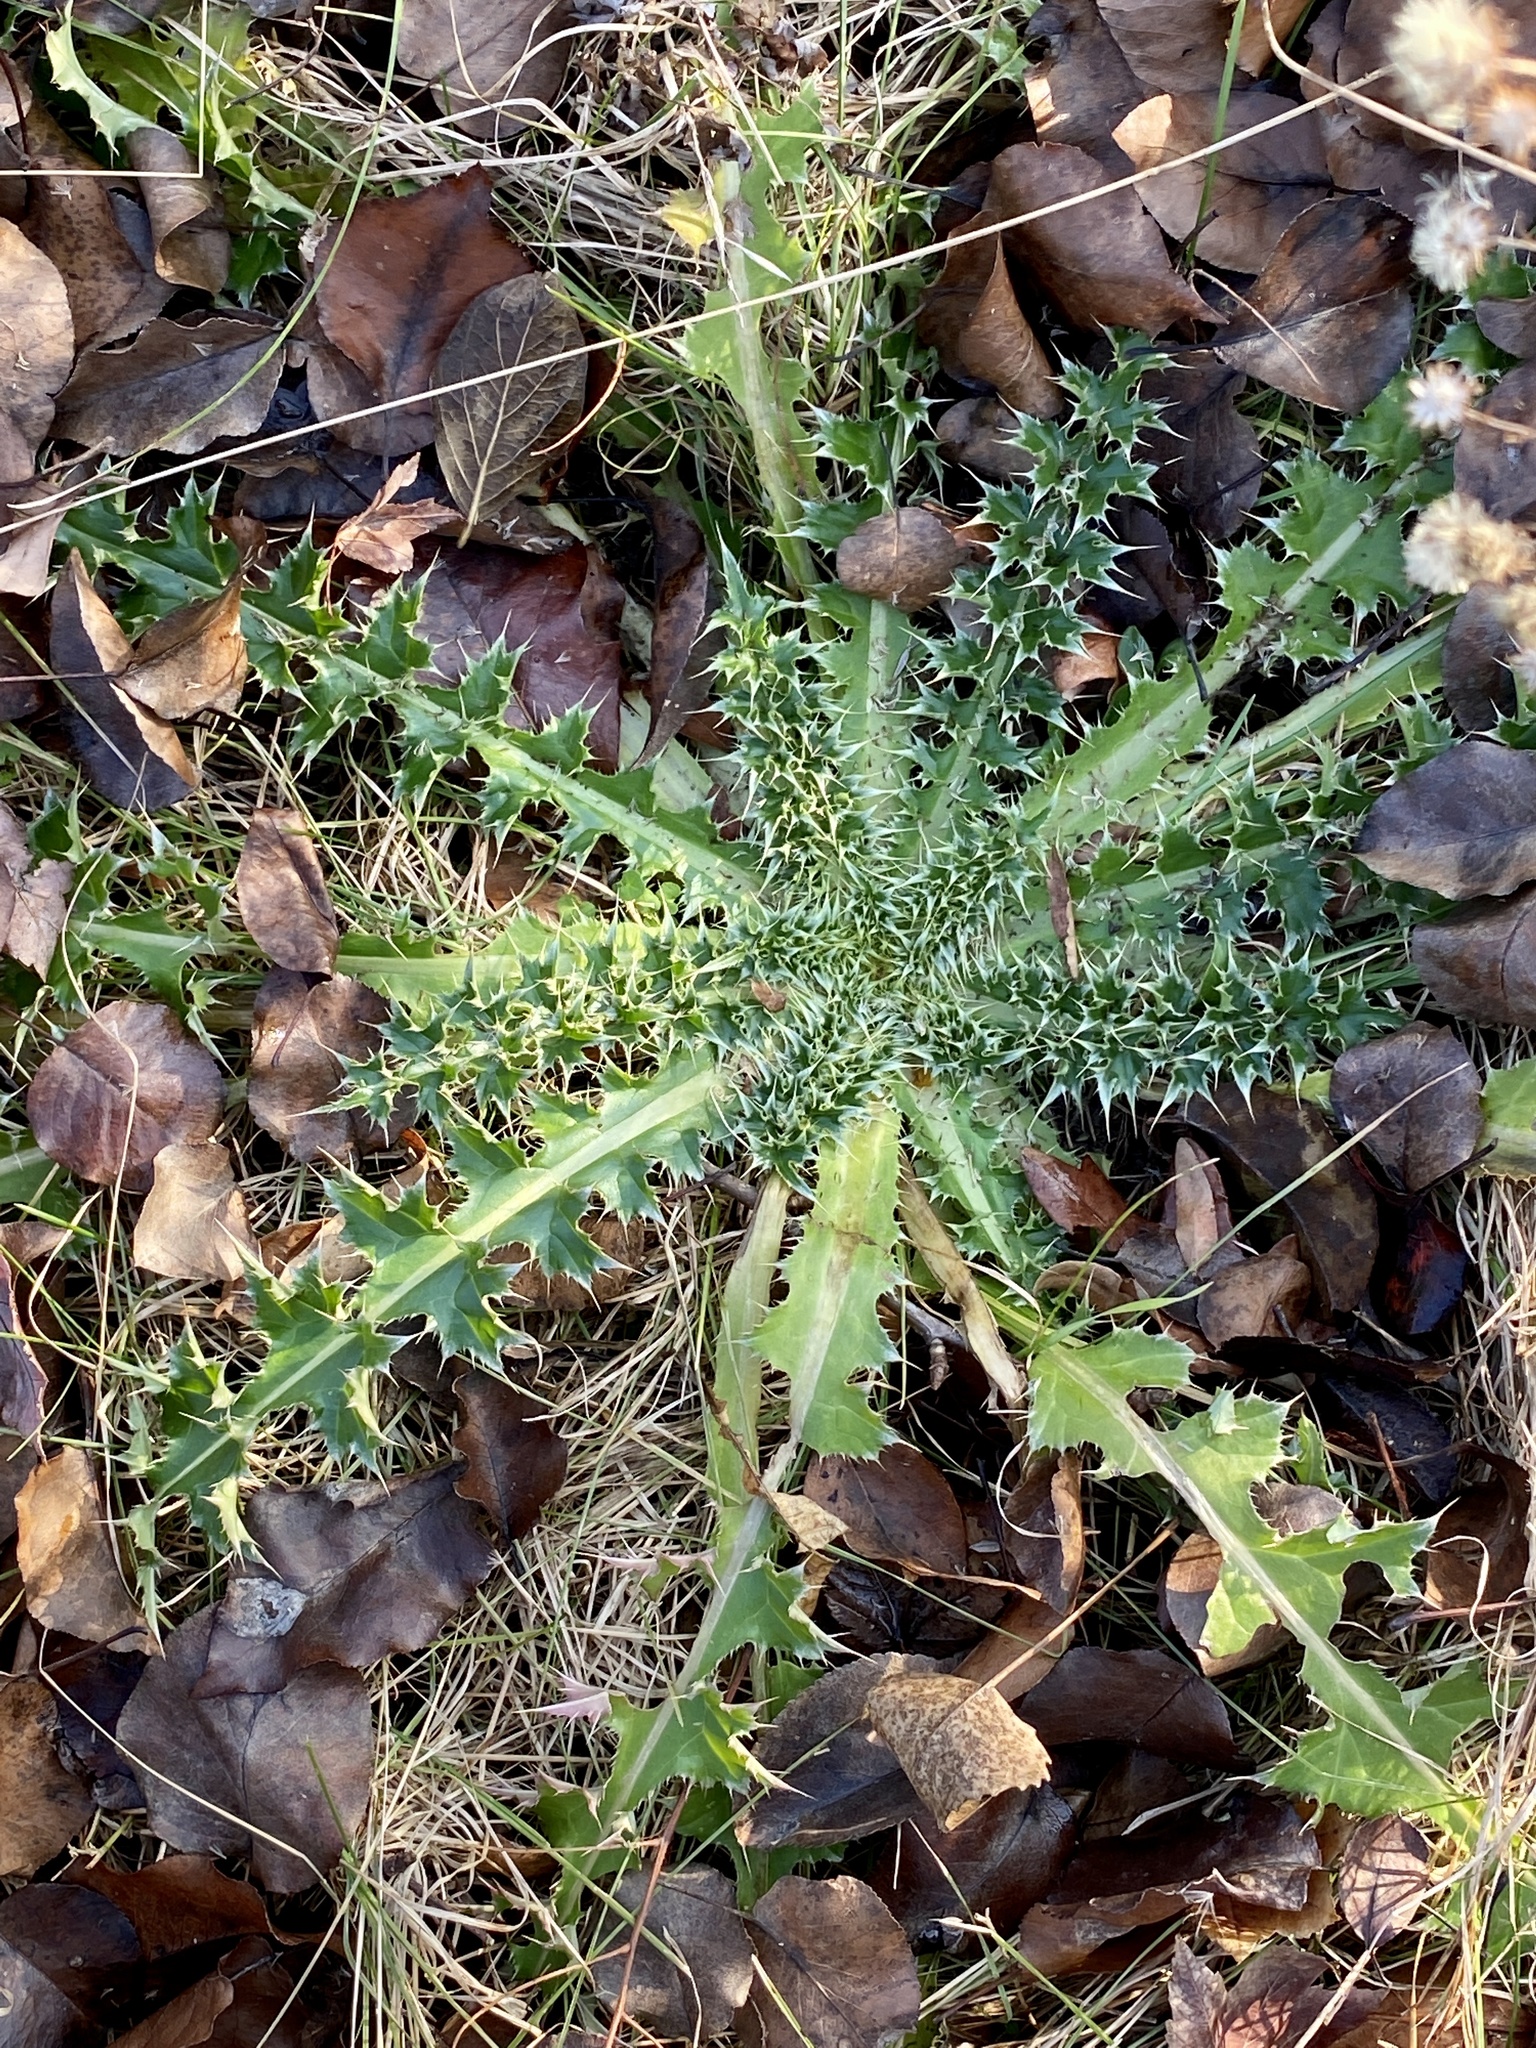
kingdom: Plantae
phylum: Tracheophyta
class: Magnoliopsida
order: Asterales
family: Asteraceae
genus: Carduus
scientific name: Carduus nutans
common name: Musk thistle
